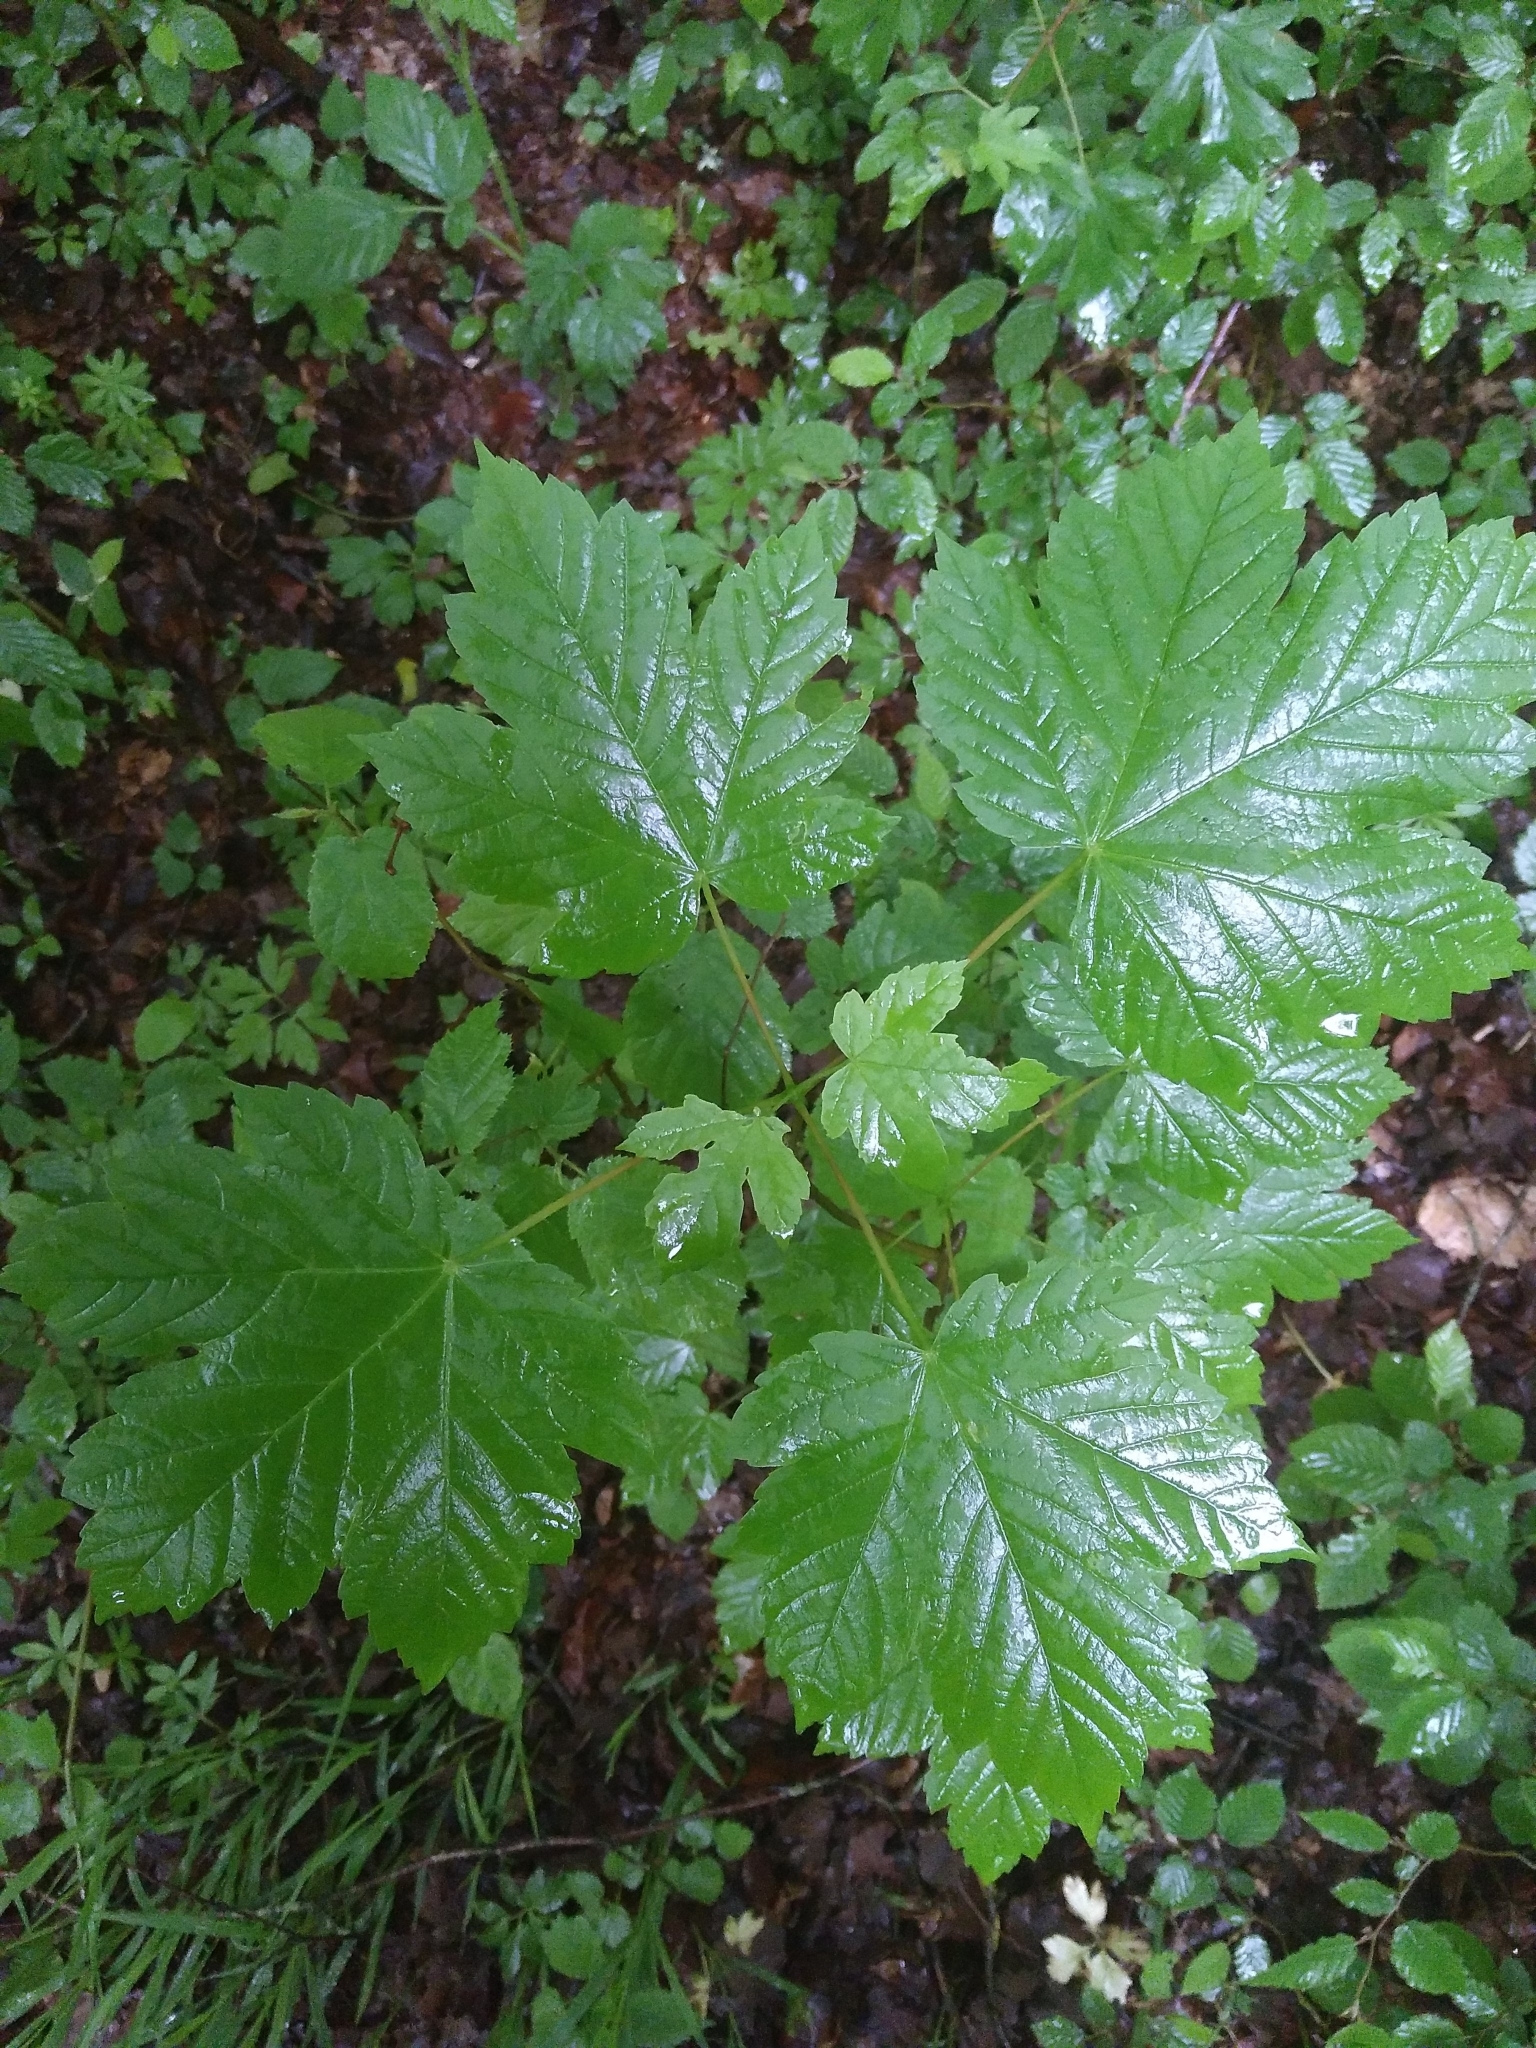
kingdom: Plantae
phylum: Tracheophyta
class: Magnoliopsida
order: Sapindales
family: Sapindaceae
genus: Acer
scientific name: Acer pseudoplatanus
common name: Sycamore
